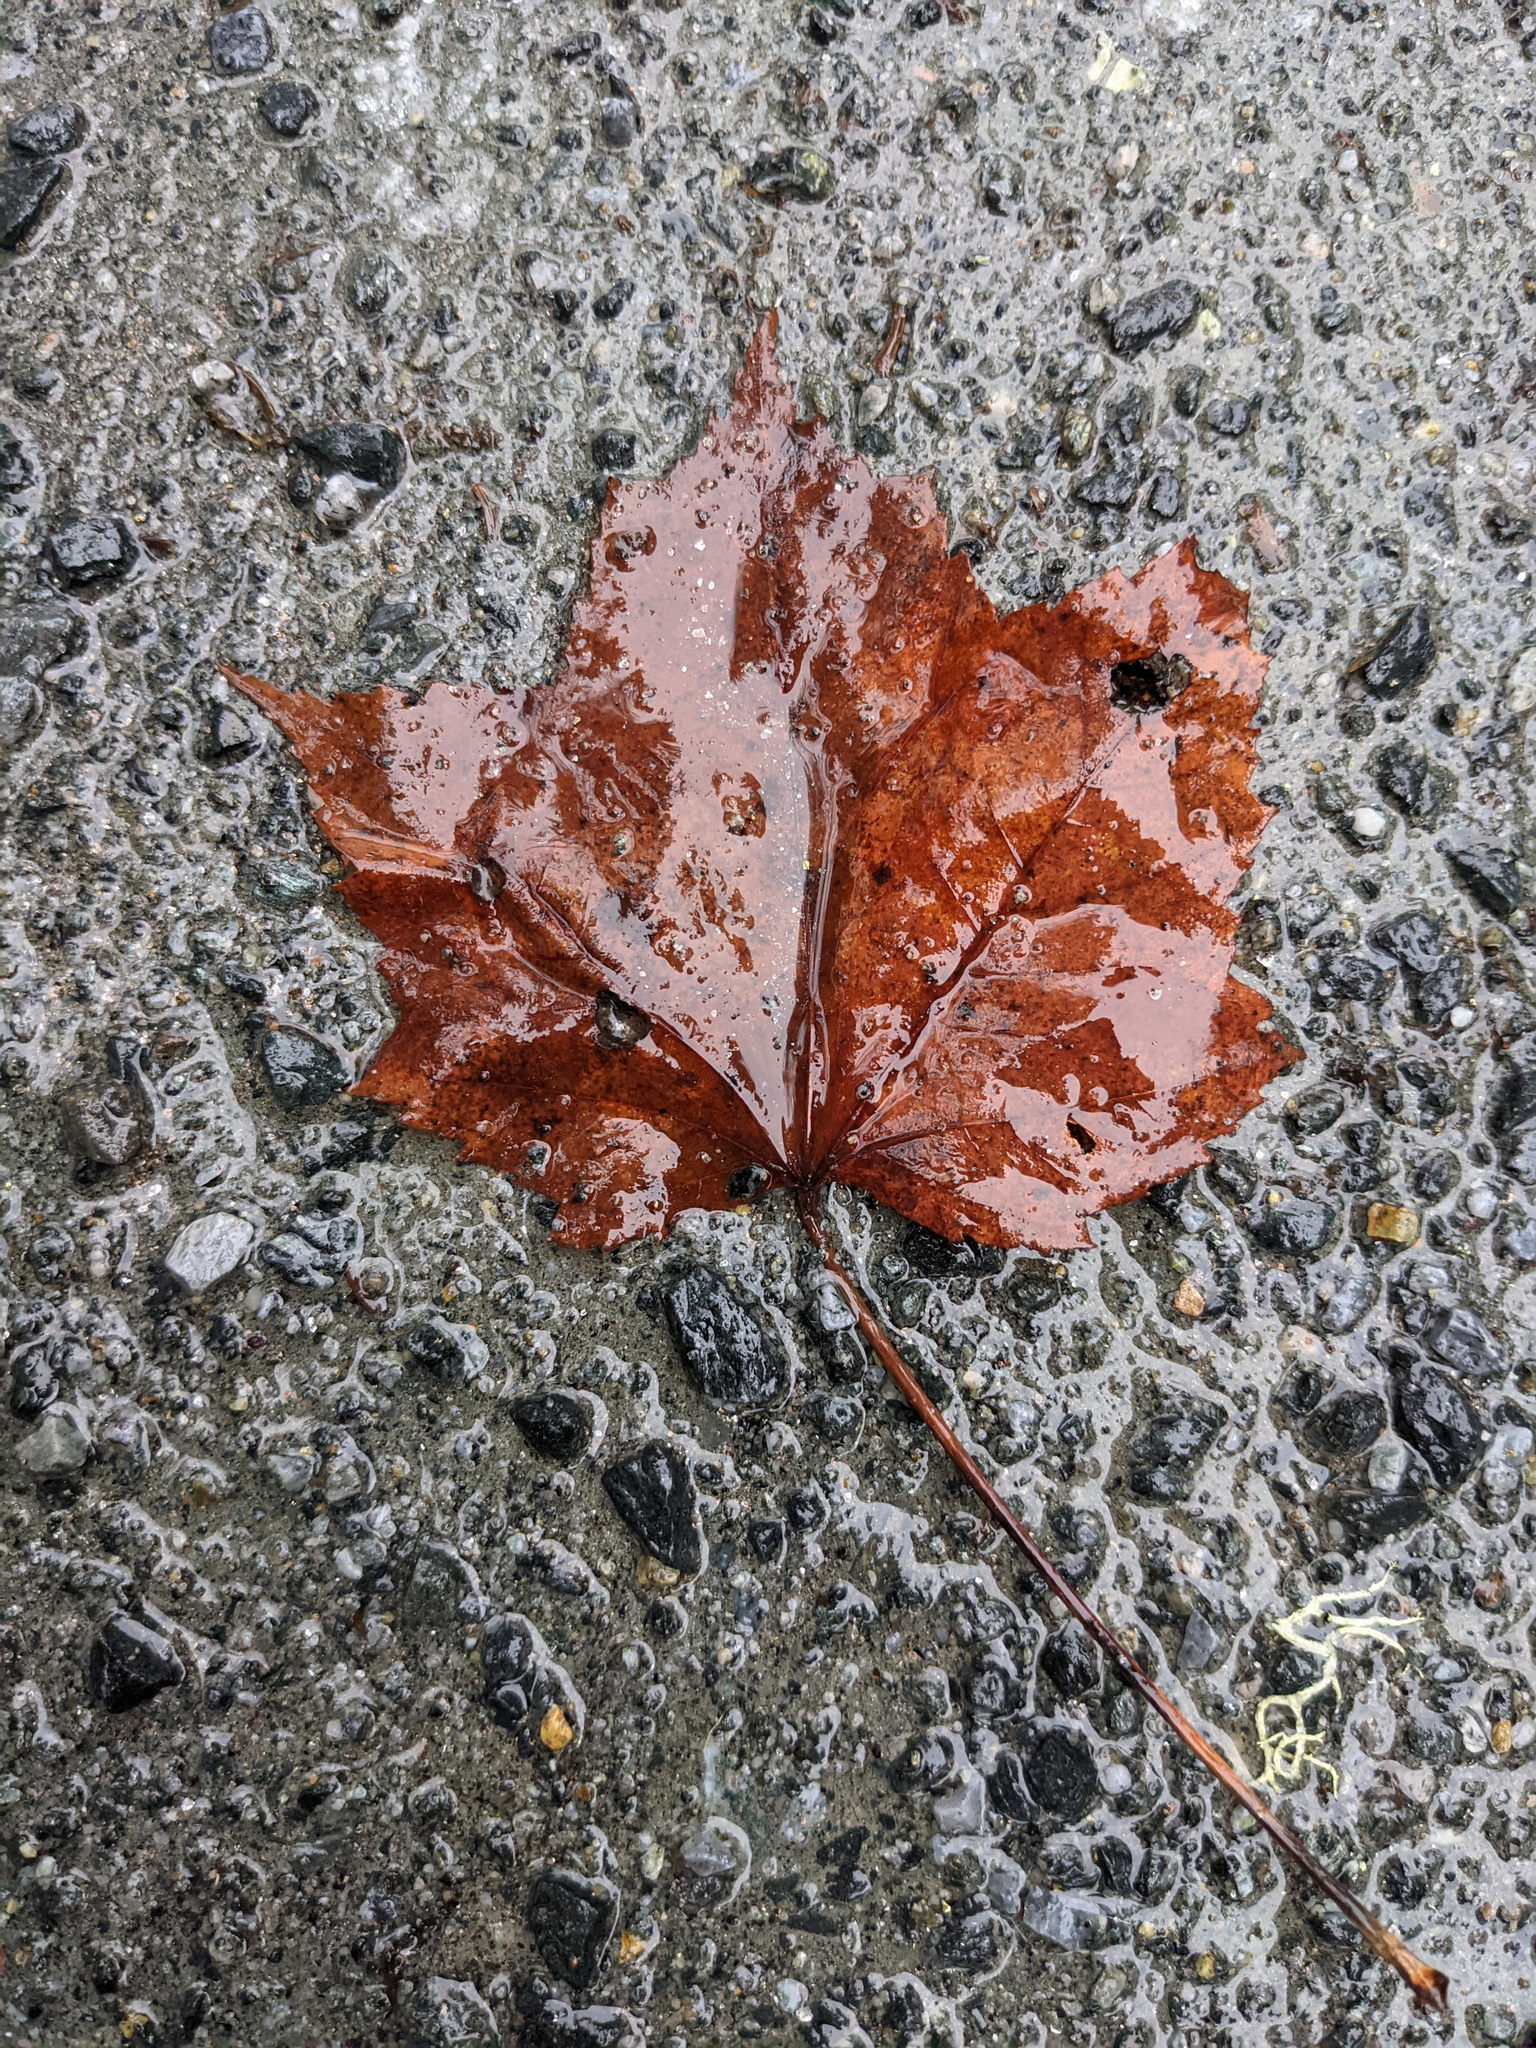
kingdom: Plantae
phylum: Tracheophyta
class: Magnoliopsida
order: Sapindales
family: Sapindaceae
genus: Acer
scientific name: Acer rubrum
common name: Red maple
